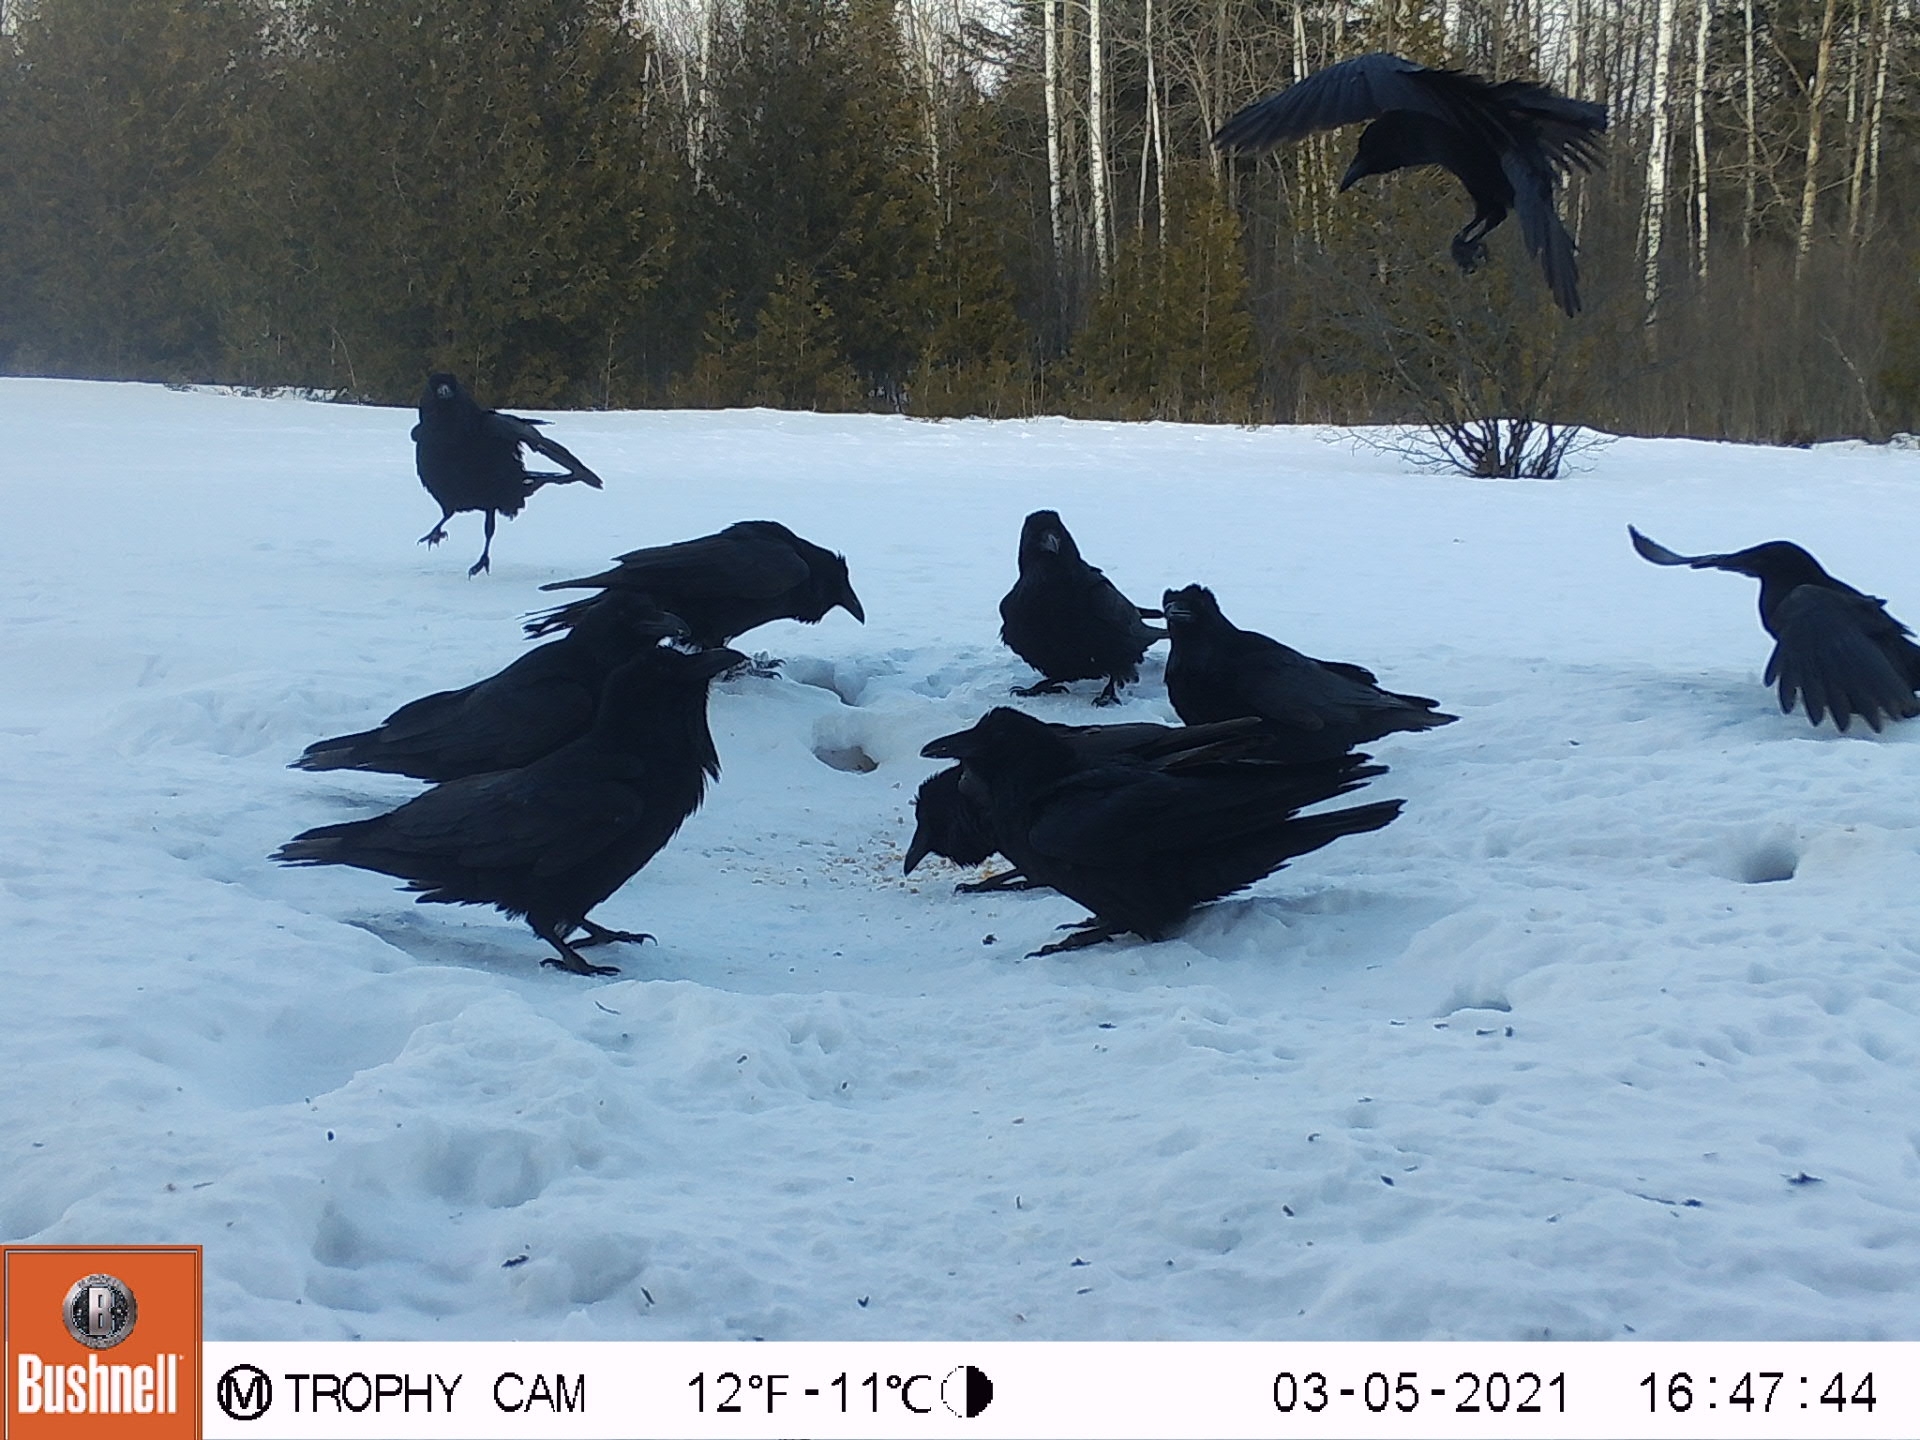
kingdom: Animalia
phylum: Chordata
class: Aves
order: Passeriformes
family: Corvidae
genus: Corvus
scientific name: Corvus corax
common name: Common raven
